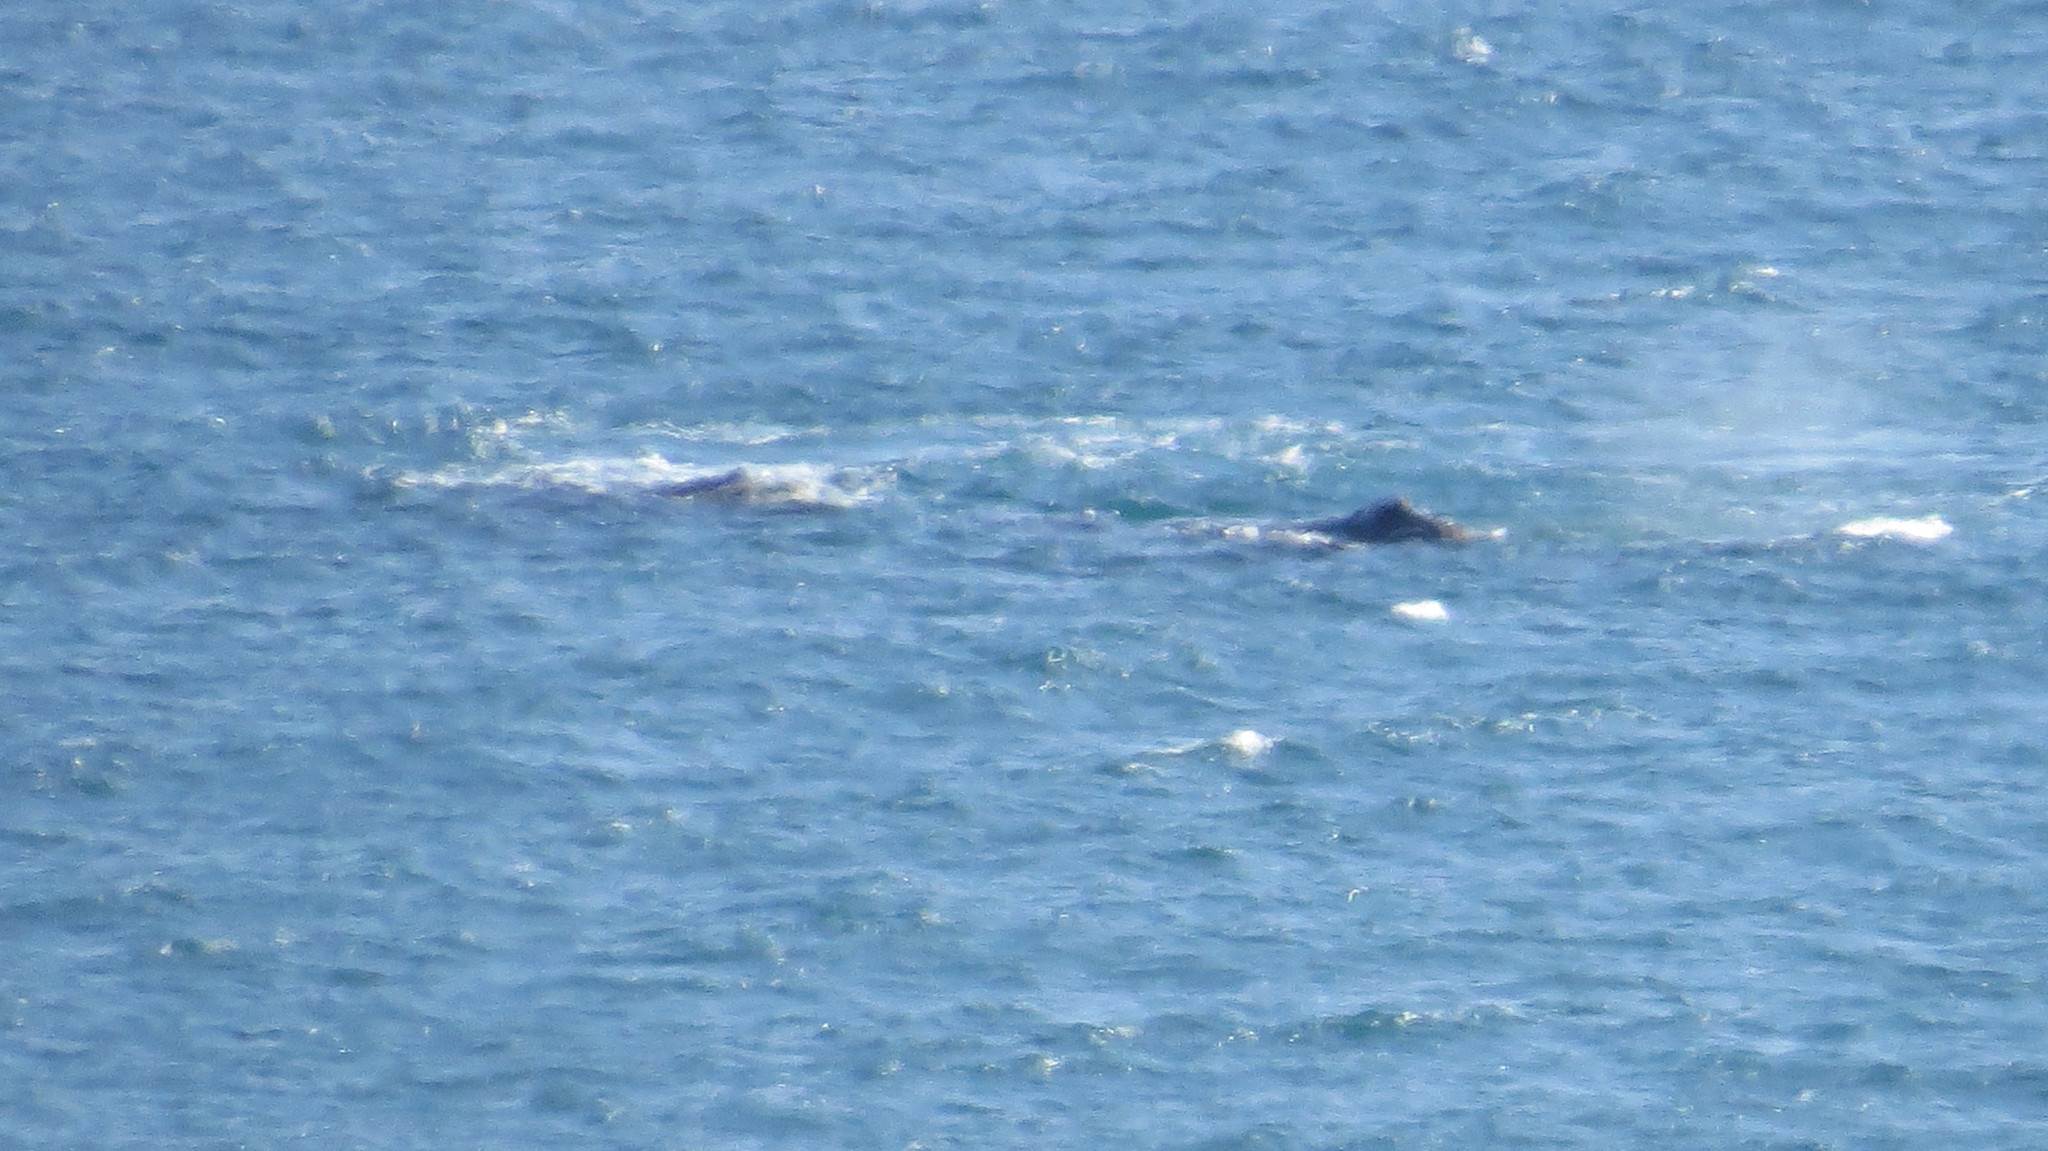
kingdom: Animalia
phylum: Chordata
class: Mammalia
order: Cetacea
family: Balaenidae
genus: Eubalaena
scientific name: Eubalaena australis
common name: Southern right whale
